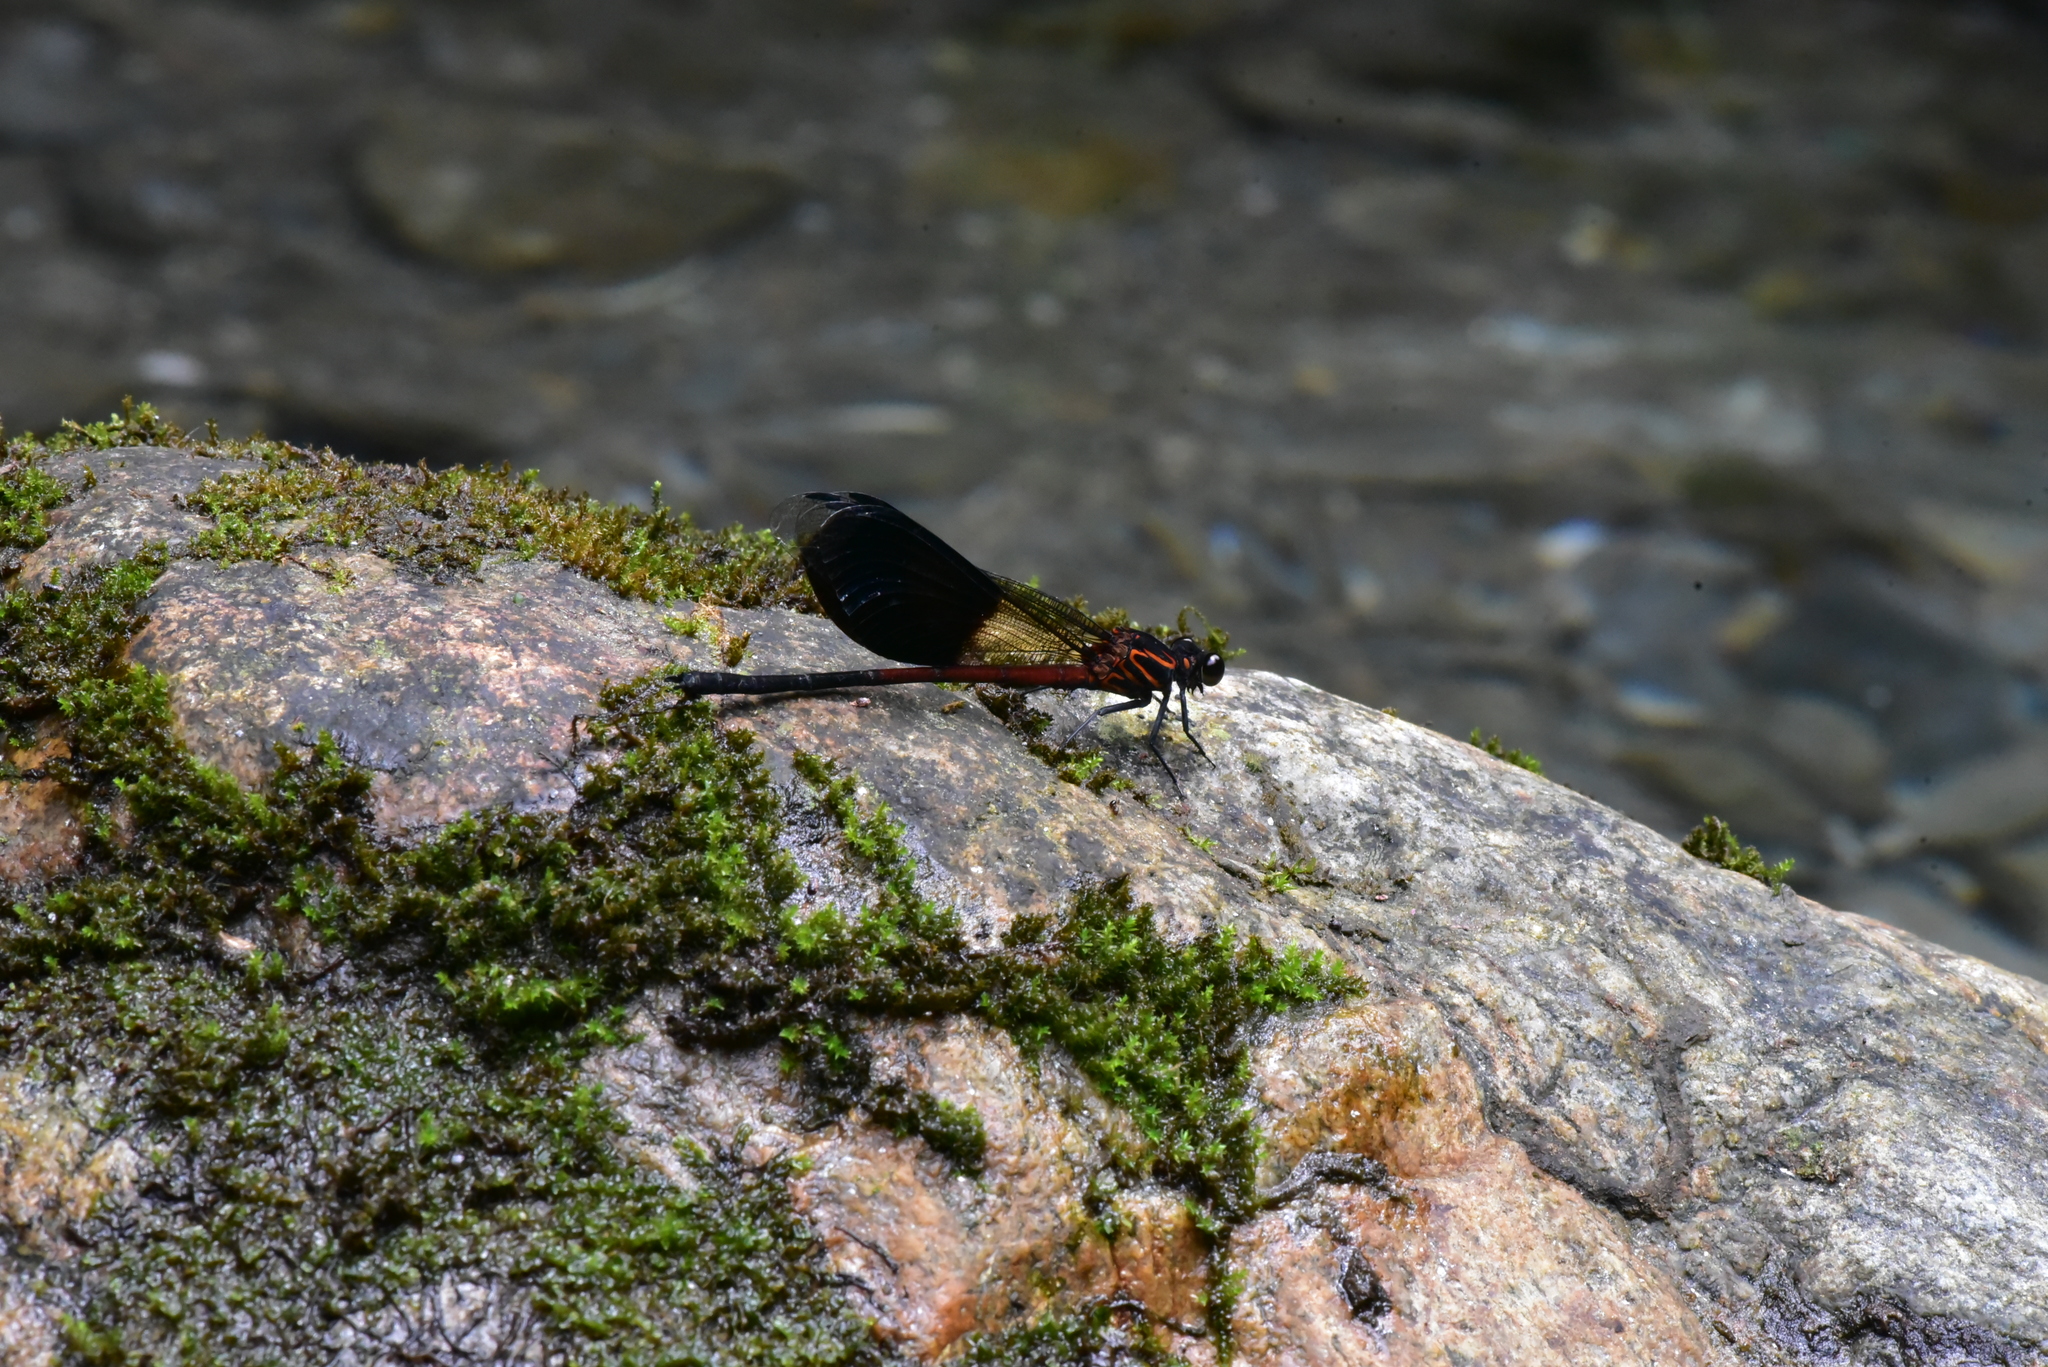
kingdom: Animalia
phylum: Arthropoda
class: Insecta
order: Odonata
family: Euphaeidae
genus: Euphaea
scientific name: Euphaea formosa
